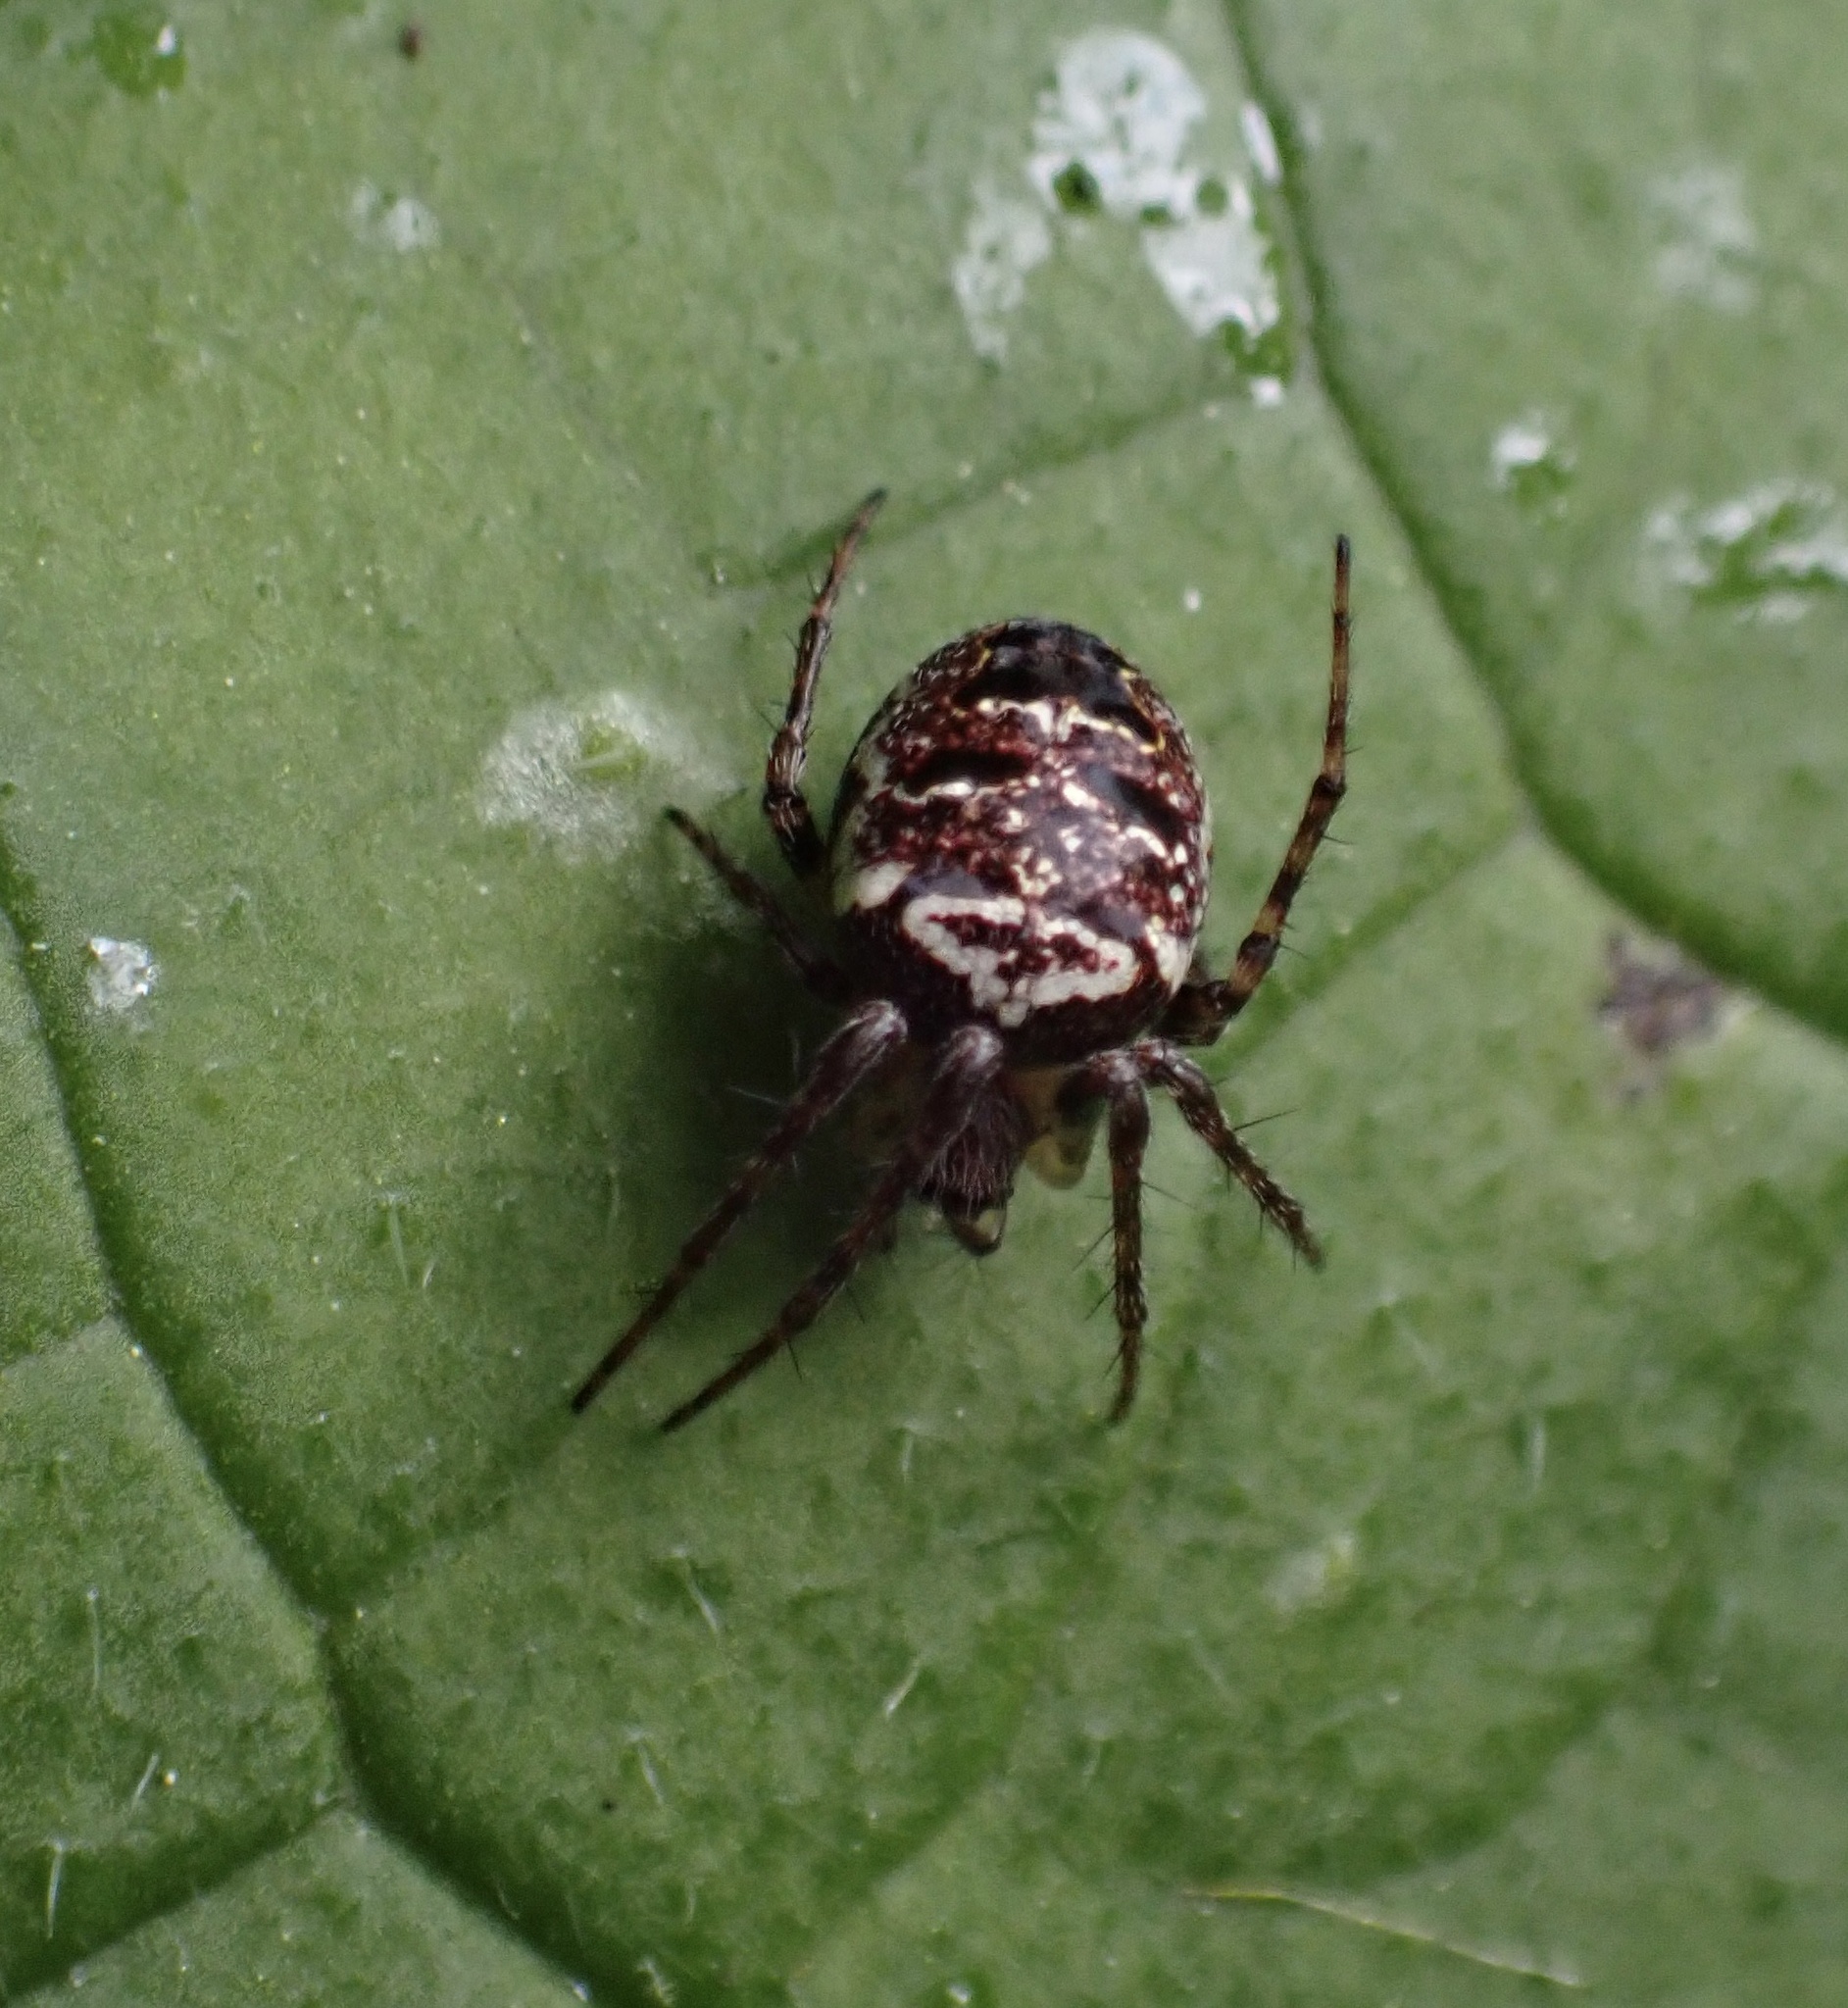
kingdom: Animalia
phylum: Arthropoda
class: Arachnida
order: Araneae
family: Araneidae
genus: Zilla
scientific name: Zilla diodia
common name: Zilla diodia
